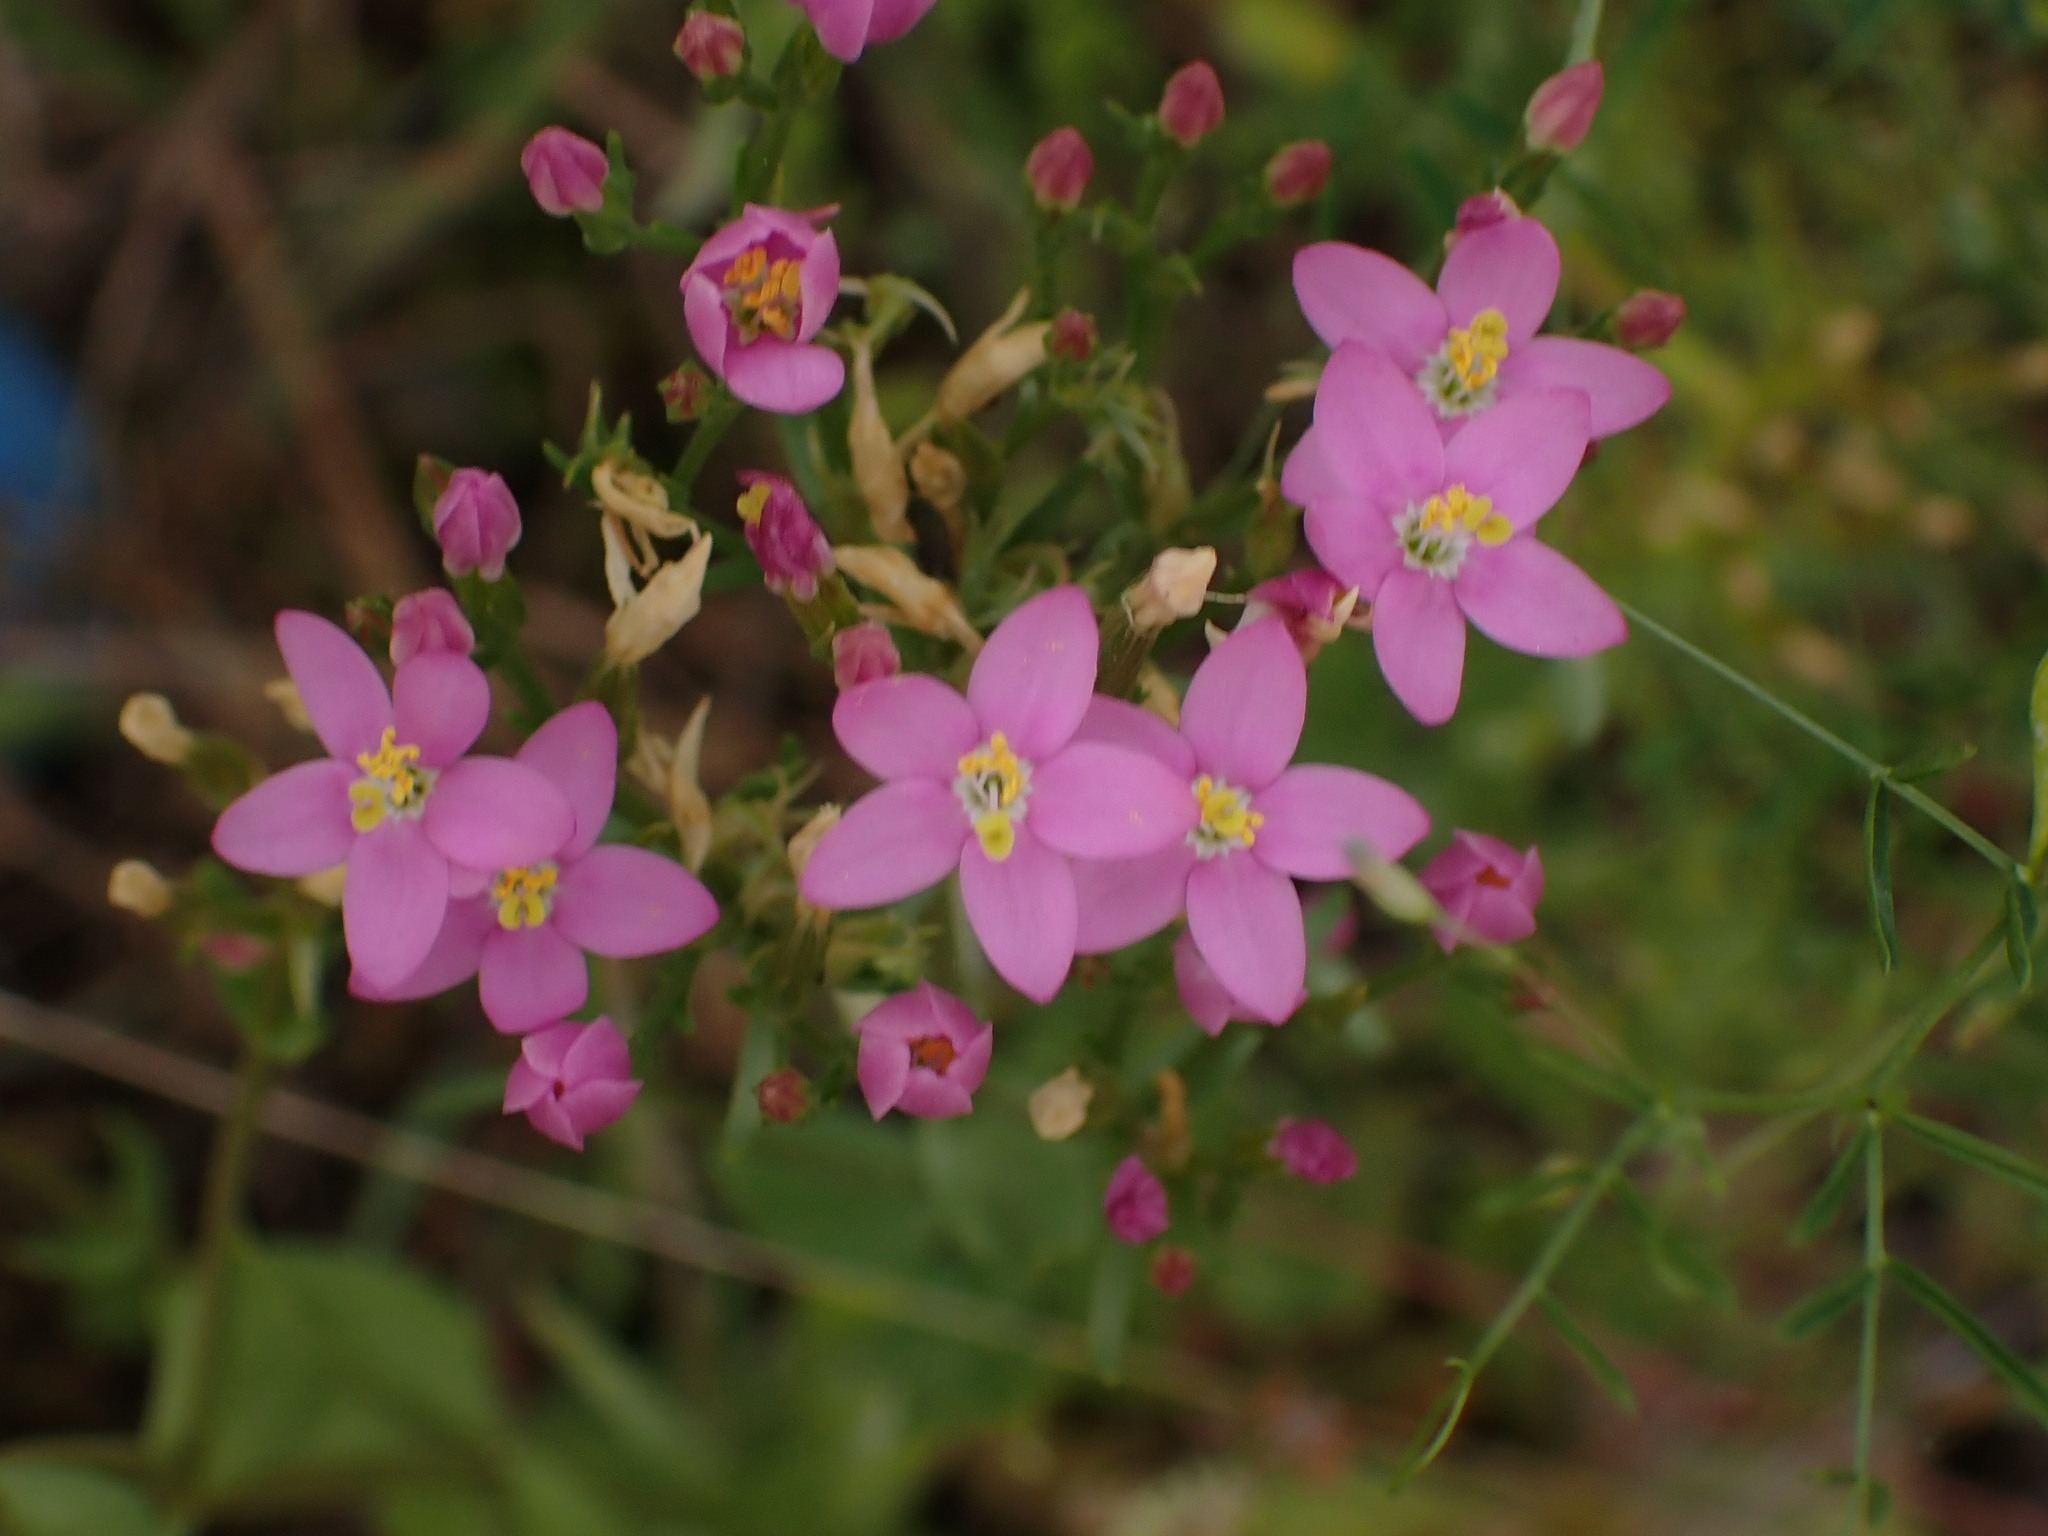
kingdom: Plantae
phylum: Tracheophyta
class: Magnoliopsida
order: Gentianales
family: Gentianaceae
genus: Centaurium
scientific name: Centaurium erythraea
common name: Common centaury
